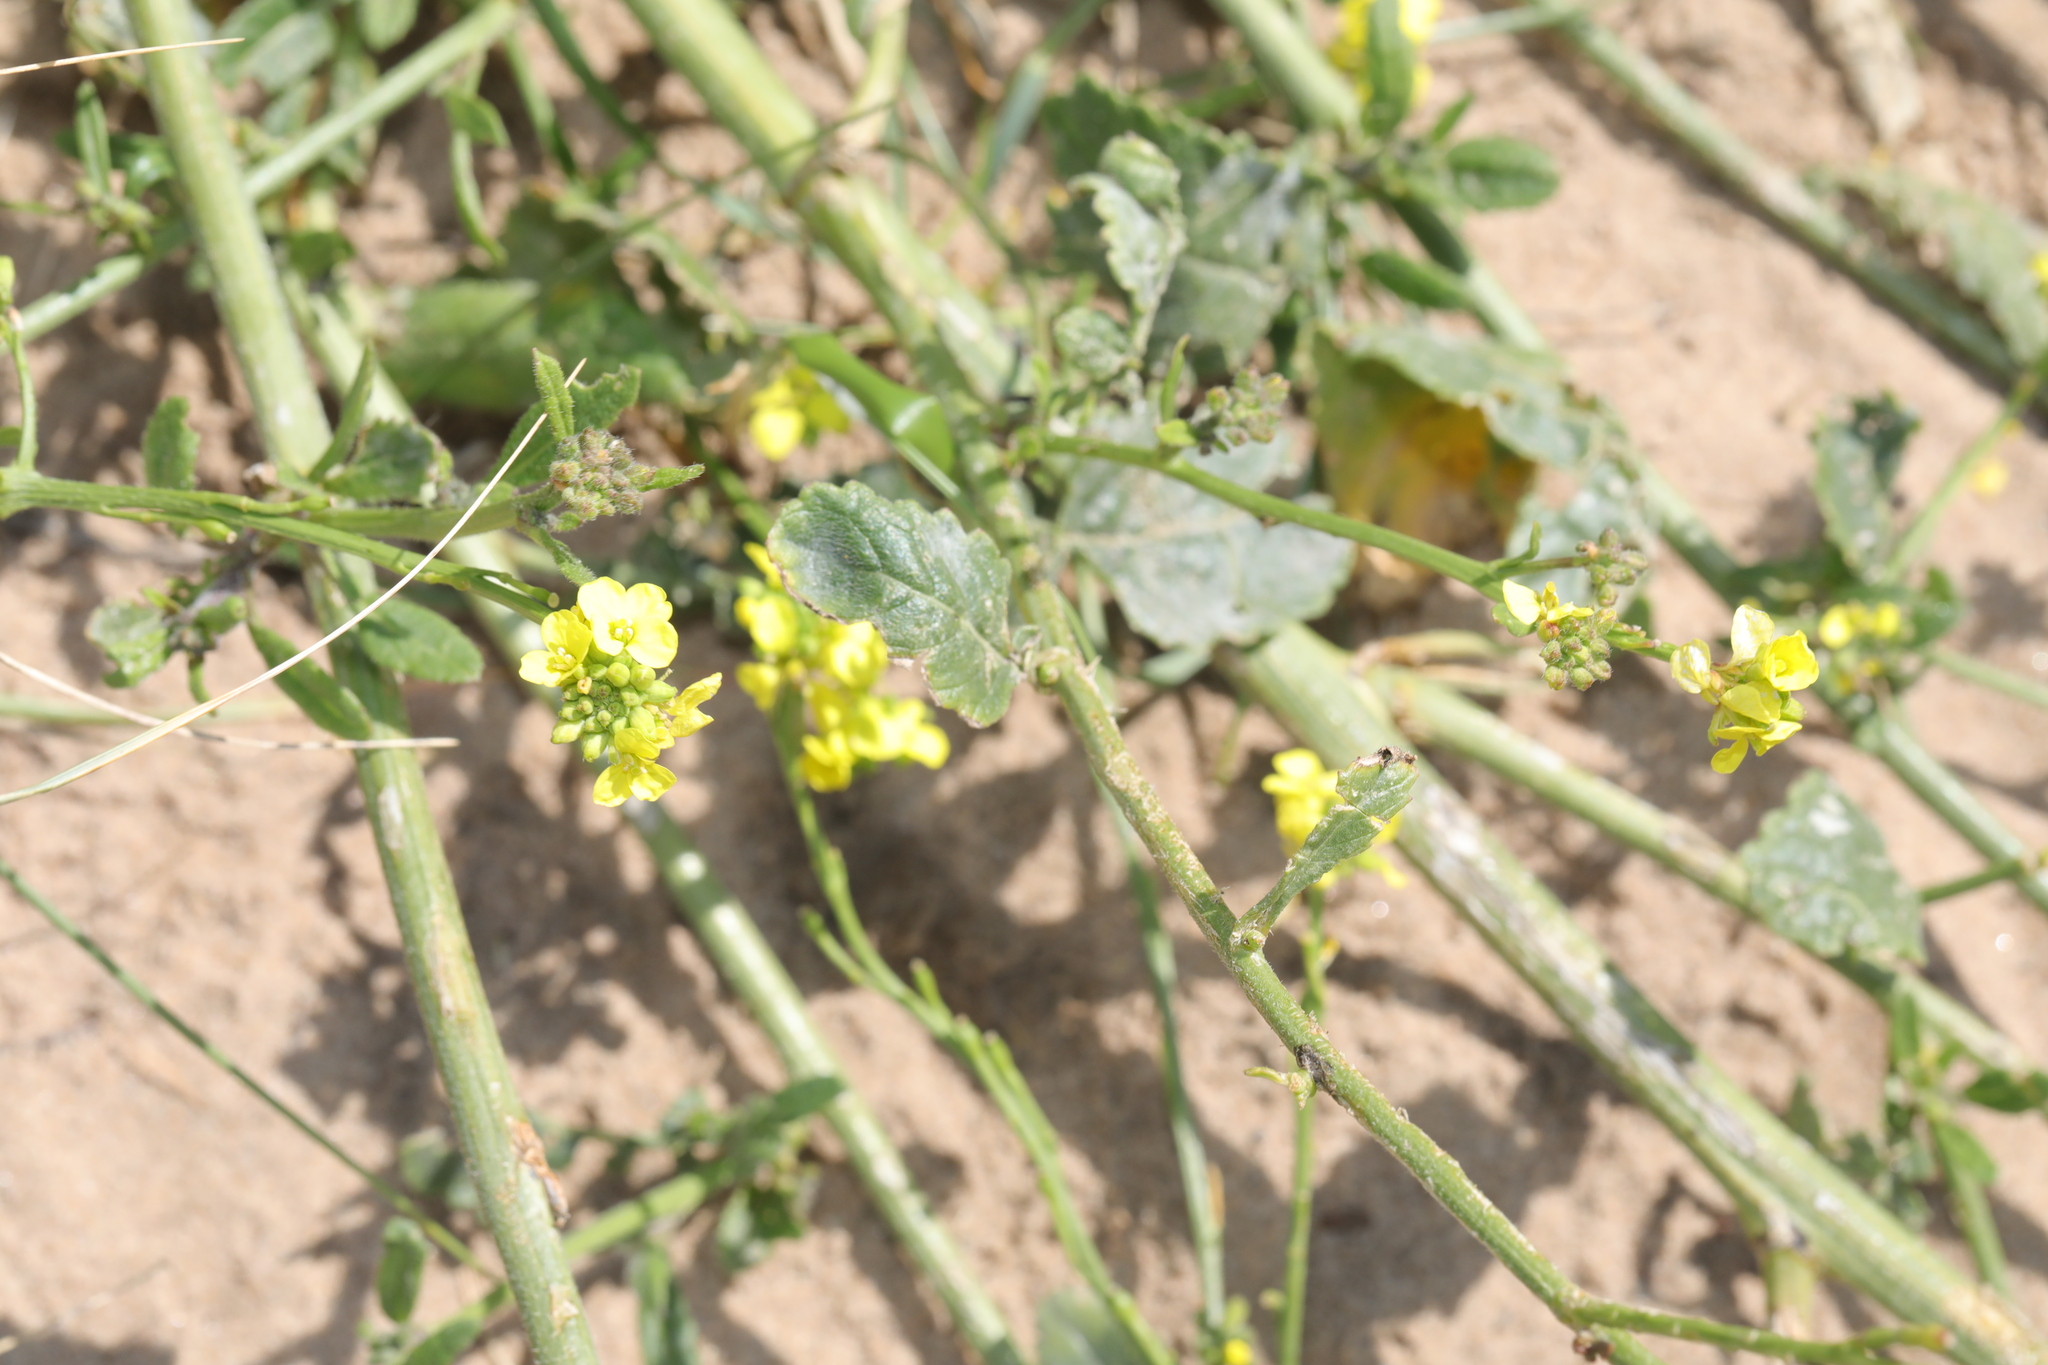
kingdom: Plantae
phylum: Tracheophyta
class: Magnoliopsida
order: Brassicales
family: Brassicaceae
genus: Hirschfeldia
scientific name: Hirschfeldia incana
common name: Hoary mustard
